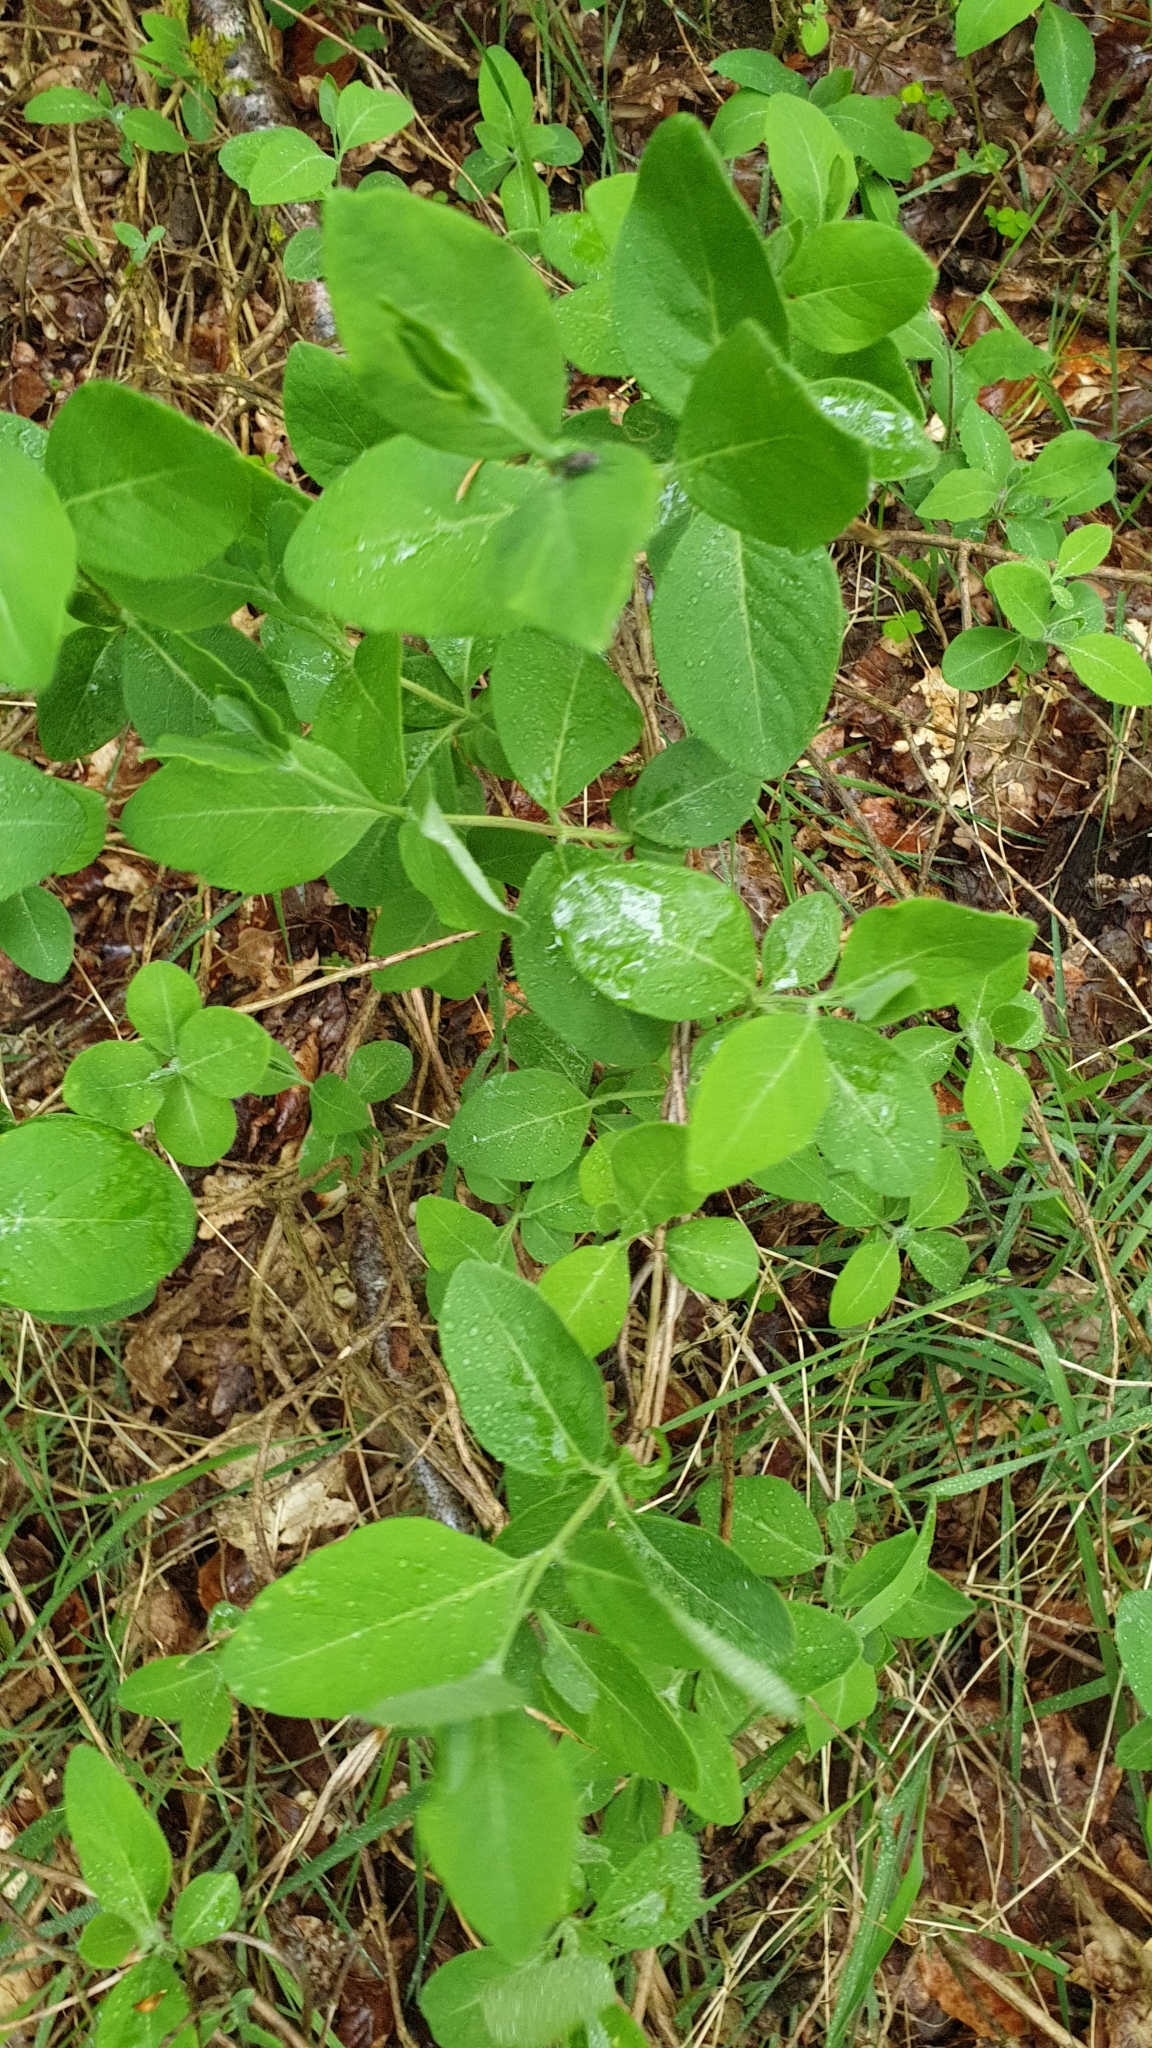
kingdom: Plantae
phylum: Tracheophyta
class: Magnoliopsida
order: Dipsacales
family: Caprifoliaceae
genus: Lonicera
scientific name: Lonicera periclymenum
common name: European honeysuckle
